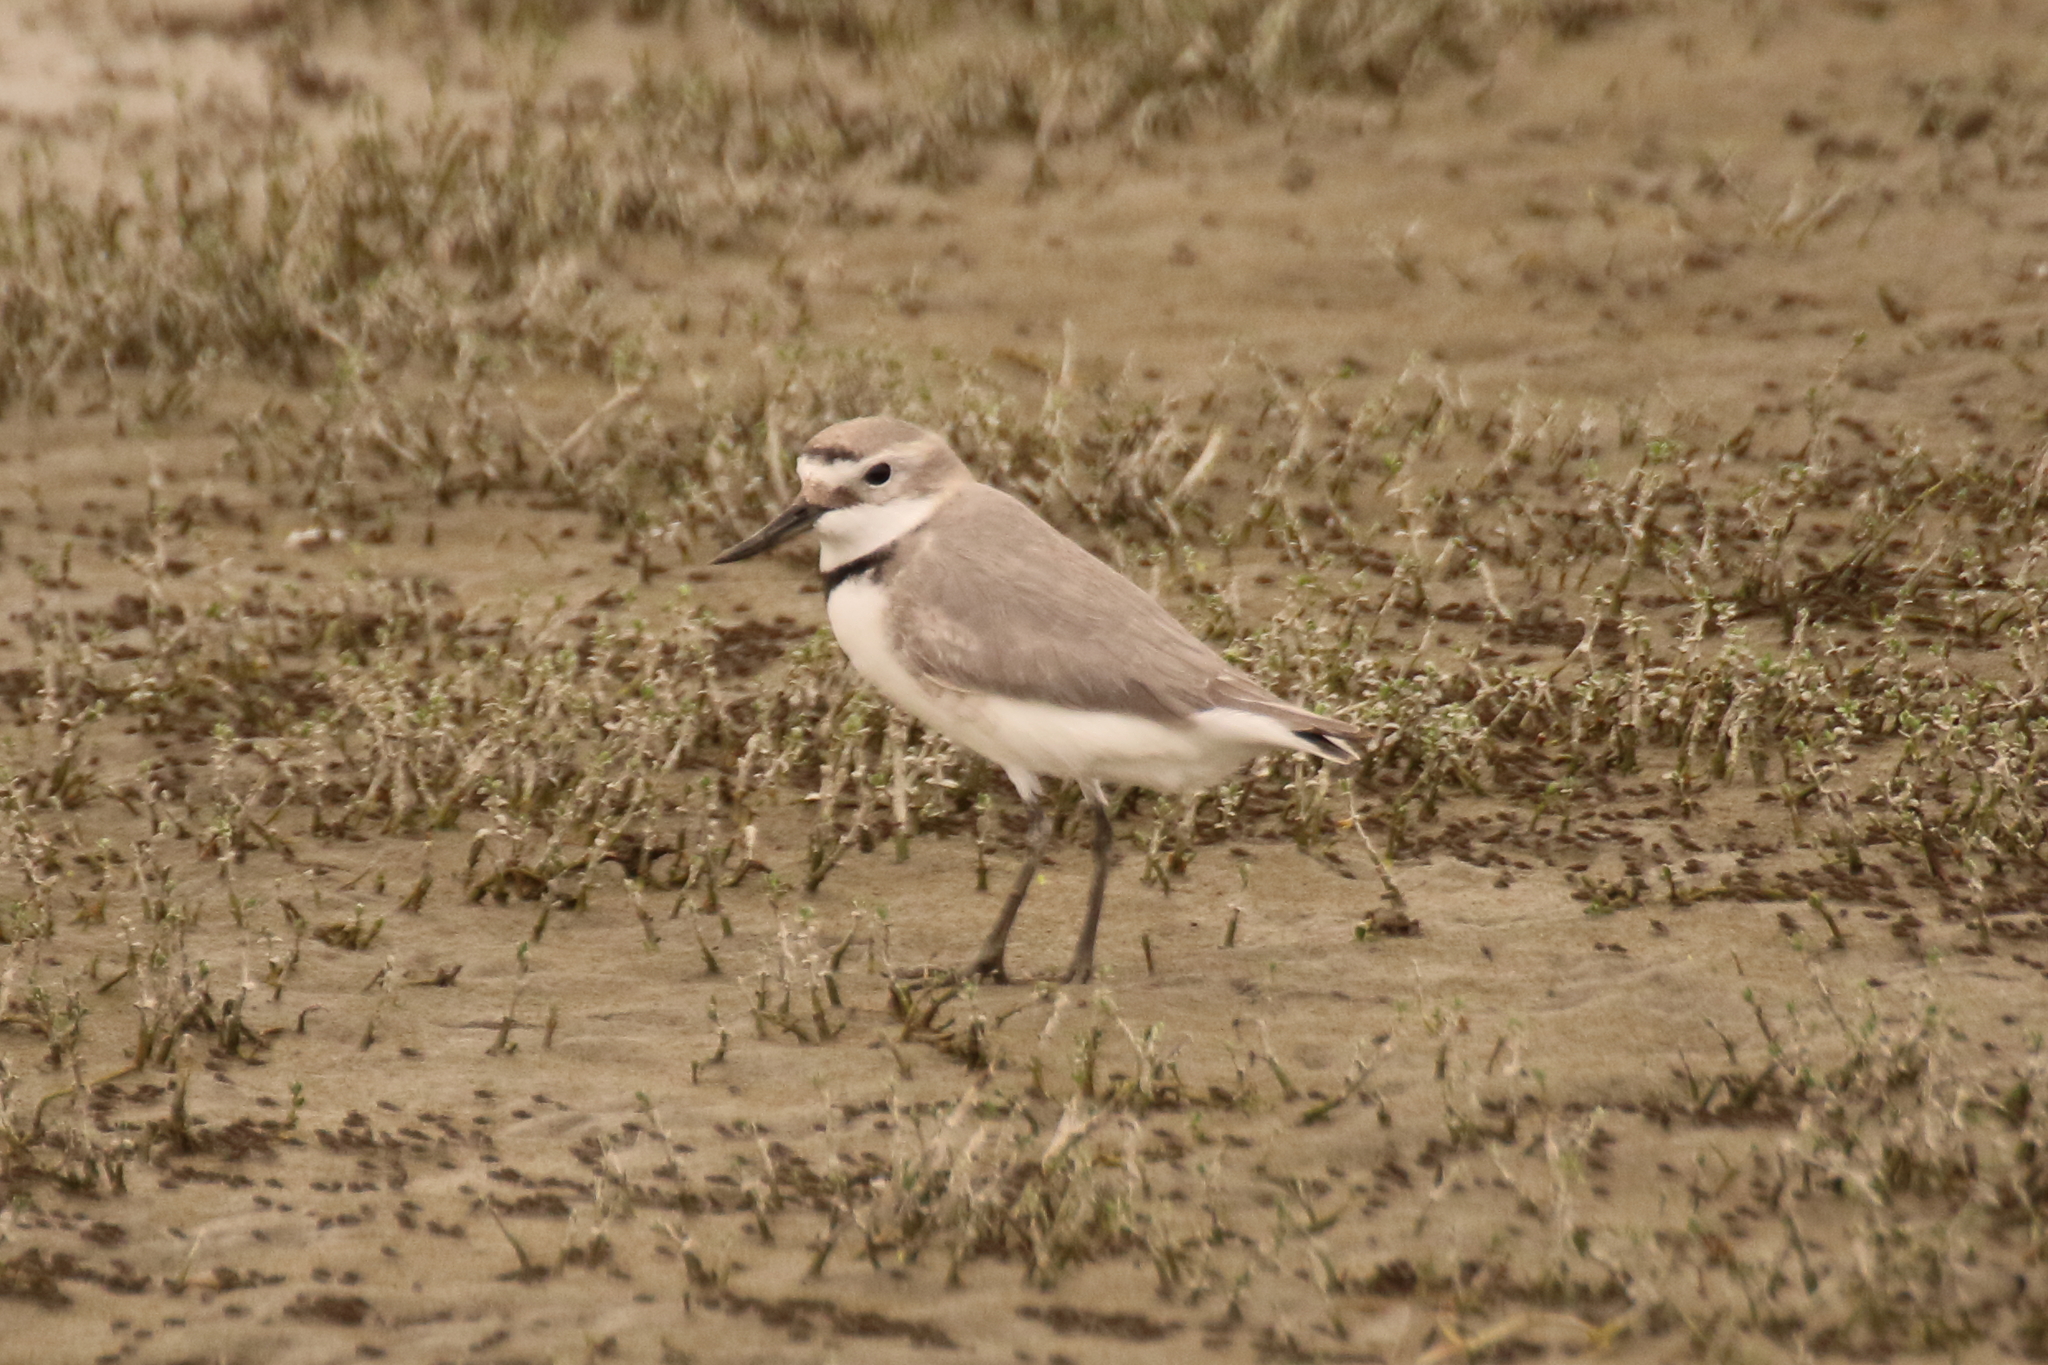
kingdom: Animalia
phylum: Chordata
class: Aves
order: Charadriiformes
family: Charadriidae
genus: Anarhynchus
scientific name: Anarhynchus frontalis
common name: Wrybill
